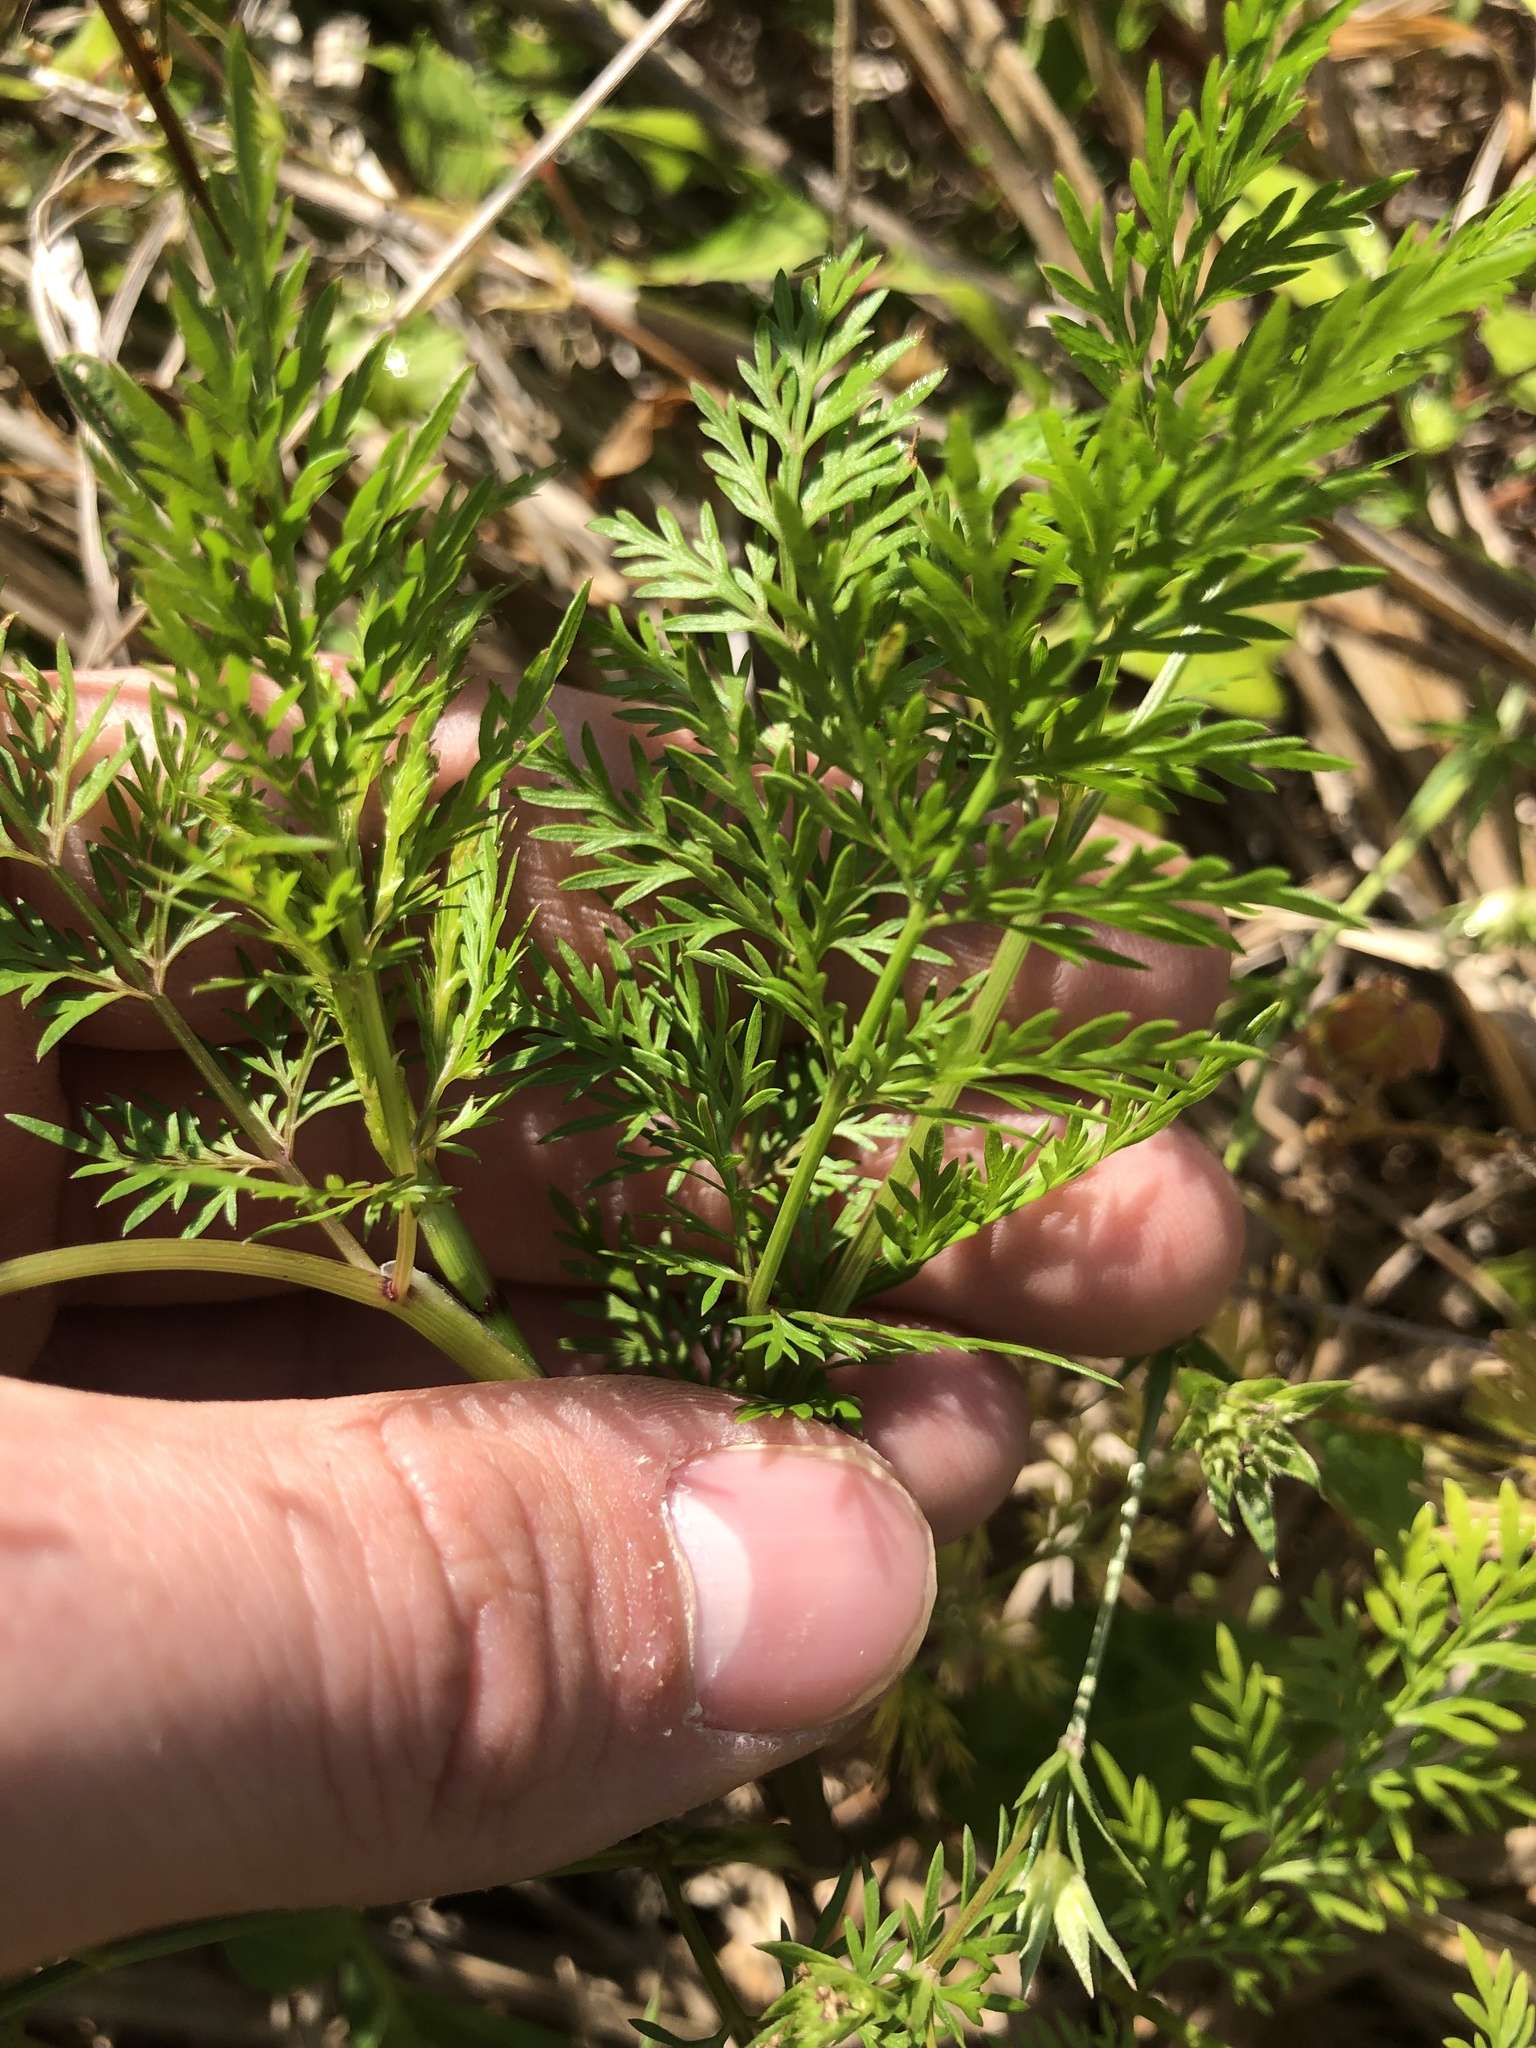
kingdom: Plantae
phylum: Tracheophyta
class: Magnoliopsida
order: Apiales
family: Apiaceae
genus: Trepocarpus
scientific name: Trepocarpus aethusae
